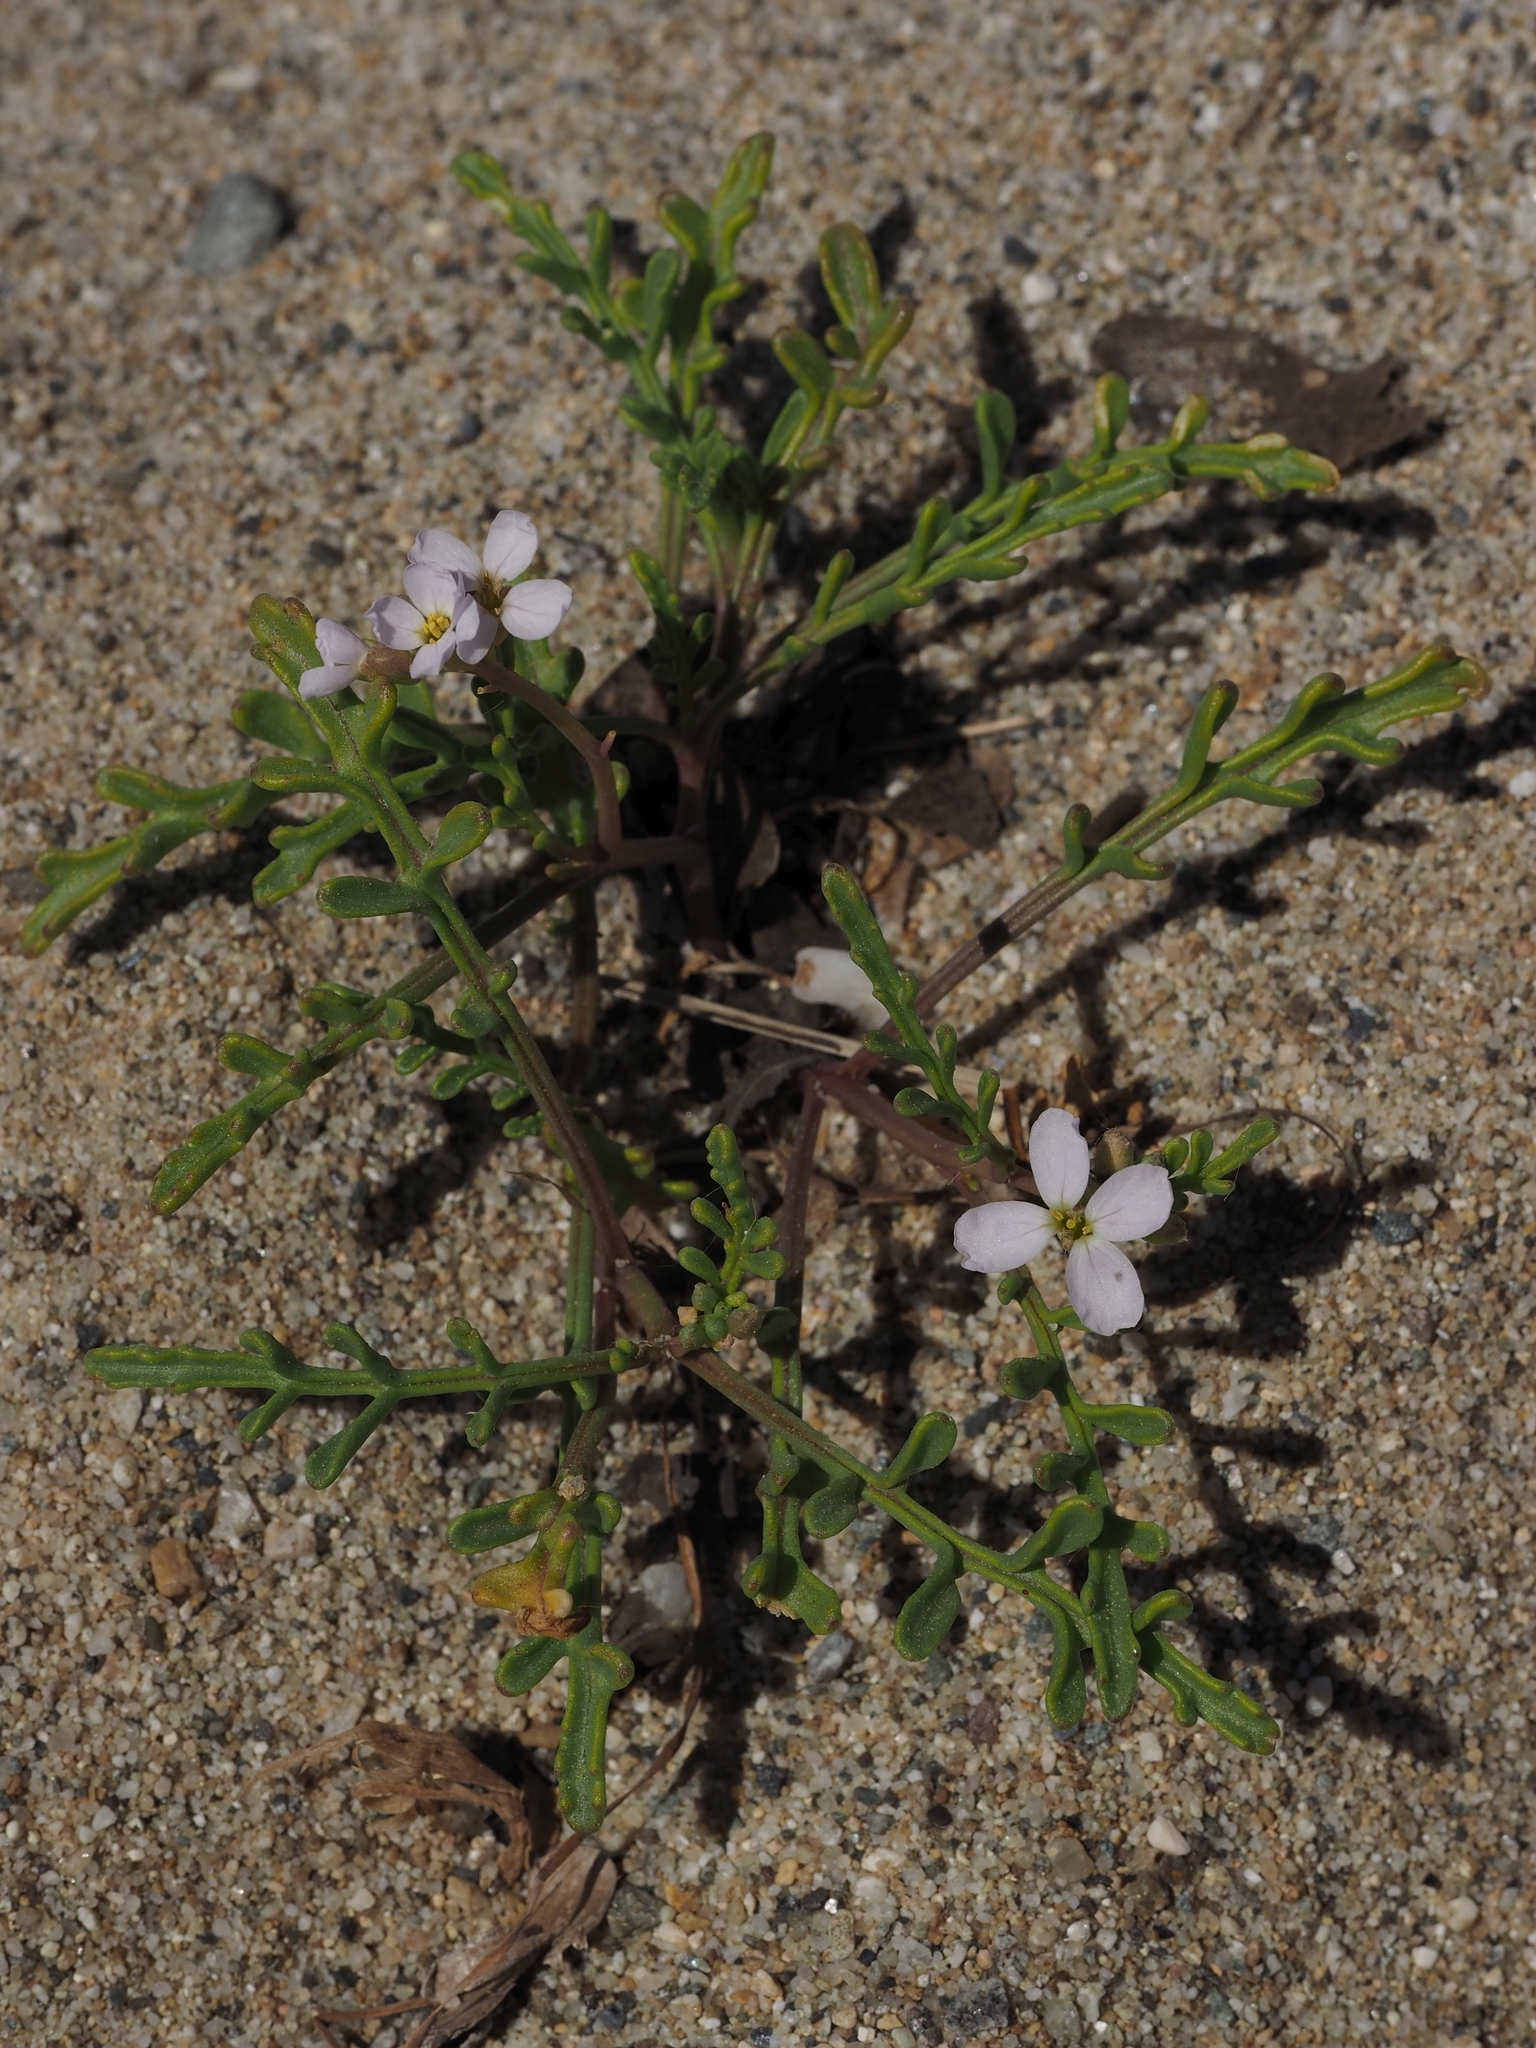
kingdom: Plantae
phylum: Tracheophyta
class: Magnoliopsida
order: Brassicales
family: Brassicaceae
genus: Cakile
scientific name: Cakile maritima
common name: Sea rocket
